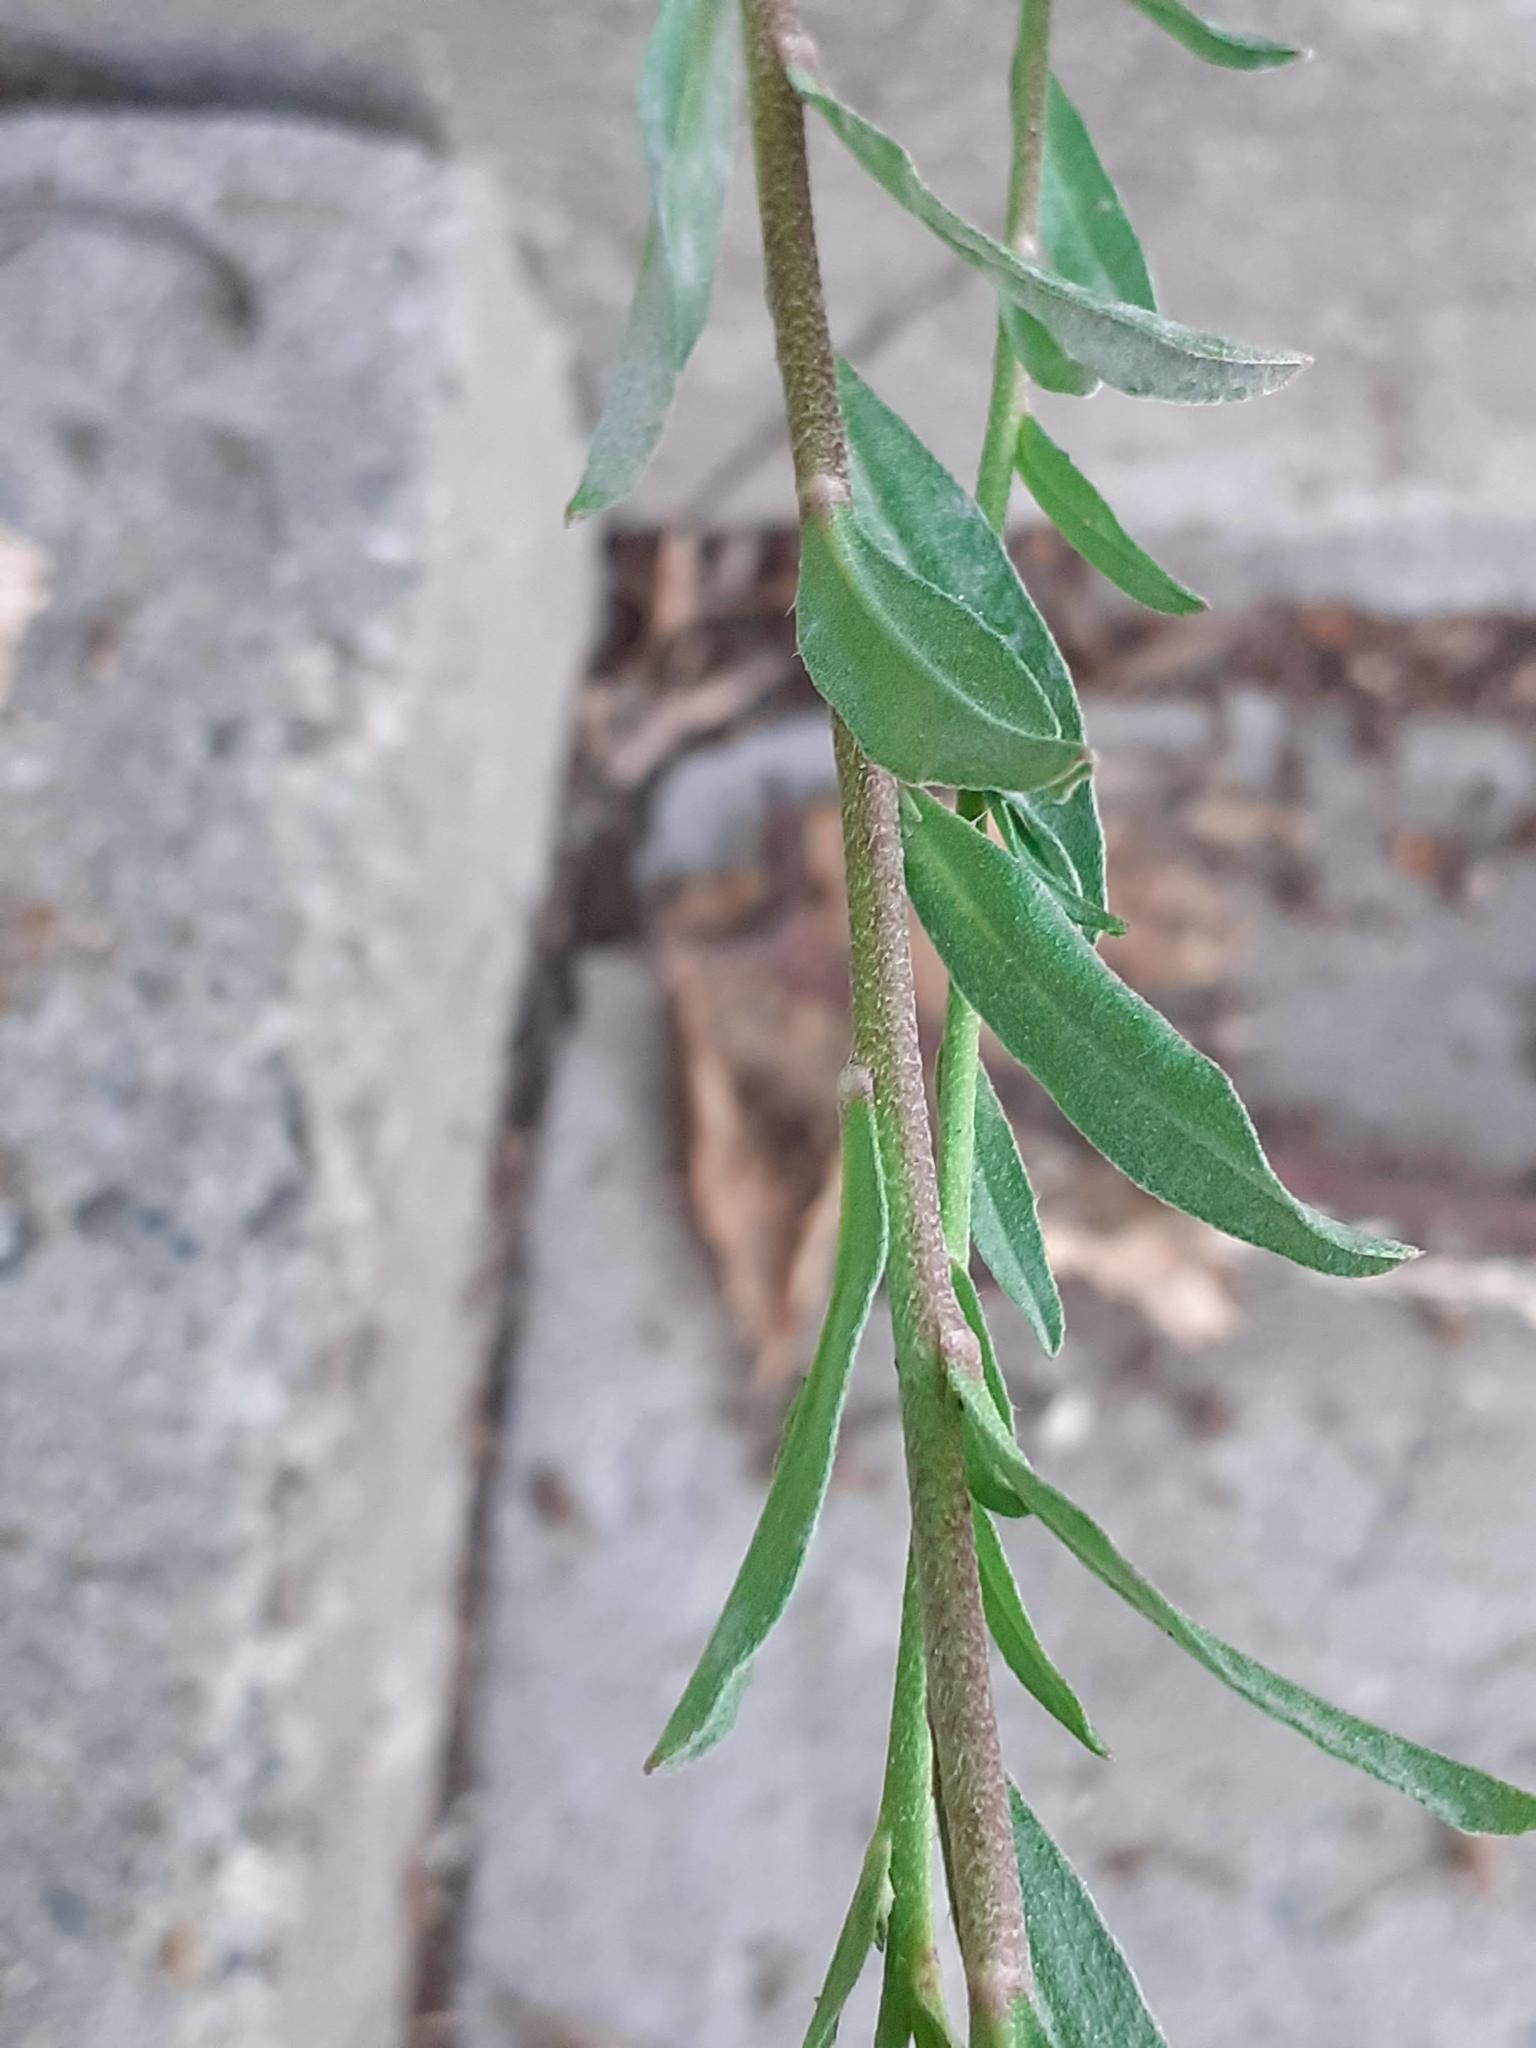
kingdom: Plantae
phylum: Tracheophyta
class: Magnoliopsida
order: Brassicales
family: Brassicaceae
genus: Berteroa
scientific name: Berteroa incana
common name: Hoary alison
